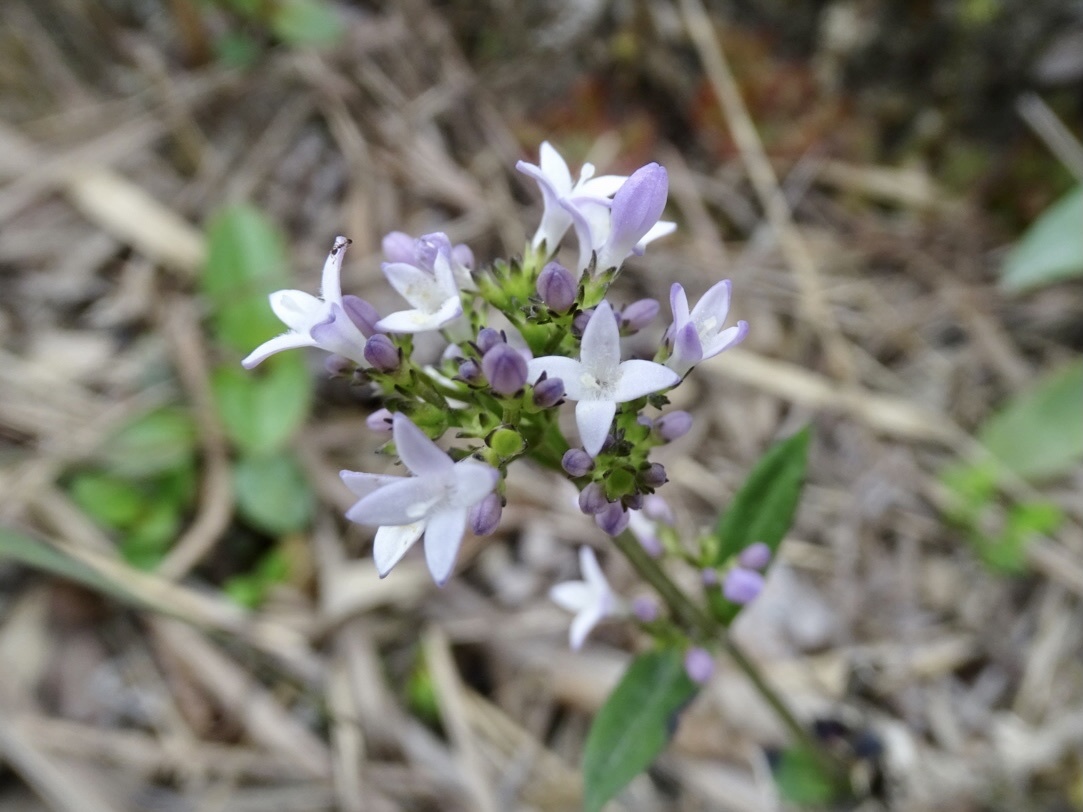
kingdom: Plantae
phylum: Tracheophyta
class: Magnoliopsida
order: Gentianales
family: Rubiaceae
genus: Hedyotis
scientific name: Hedyotis lancea
